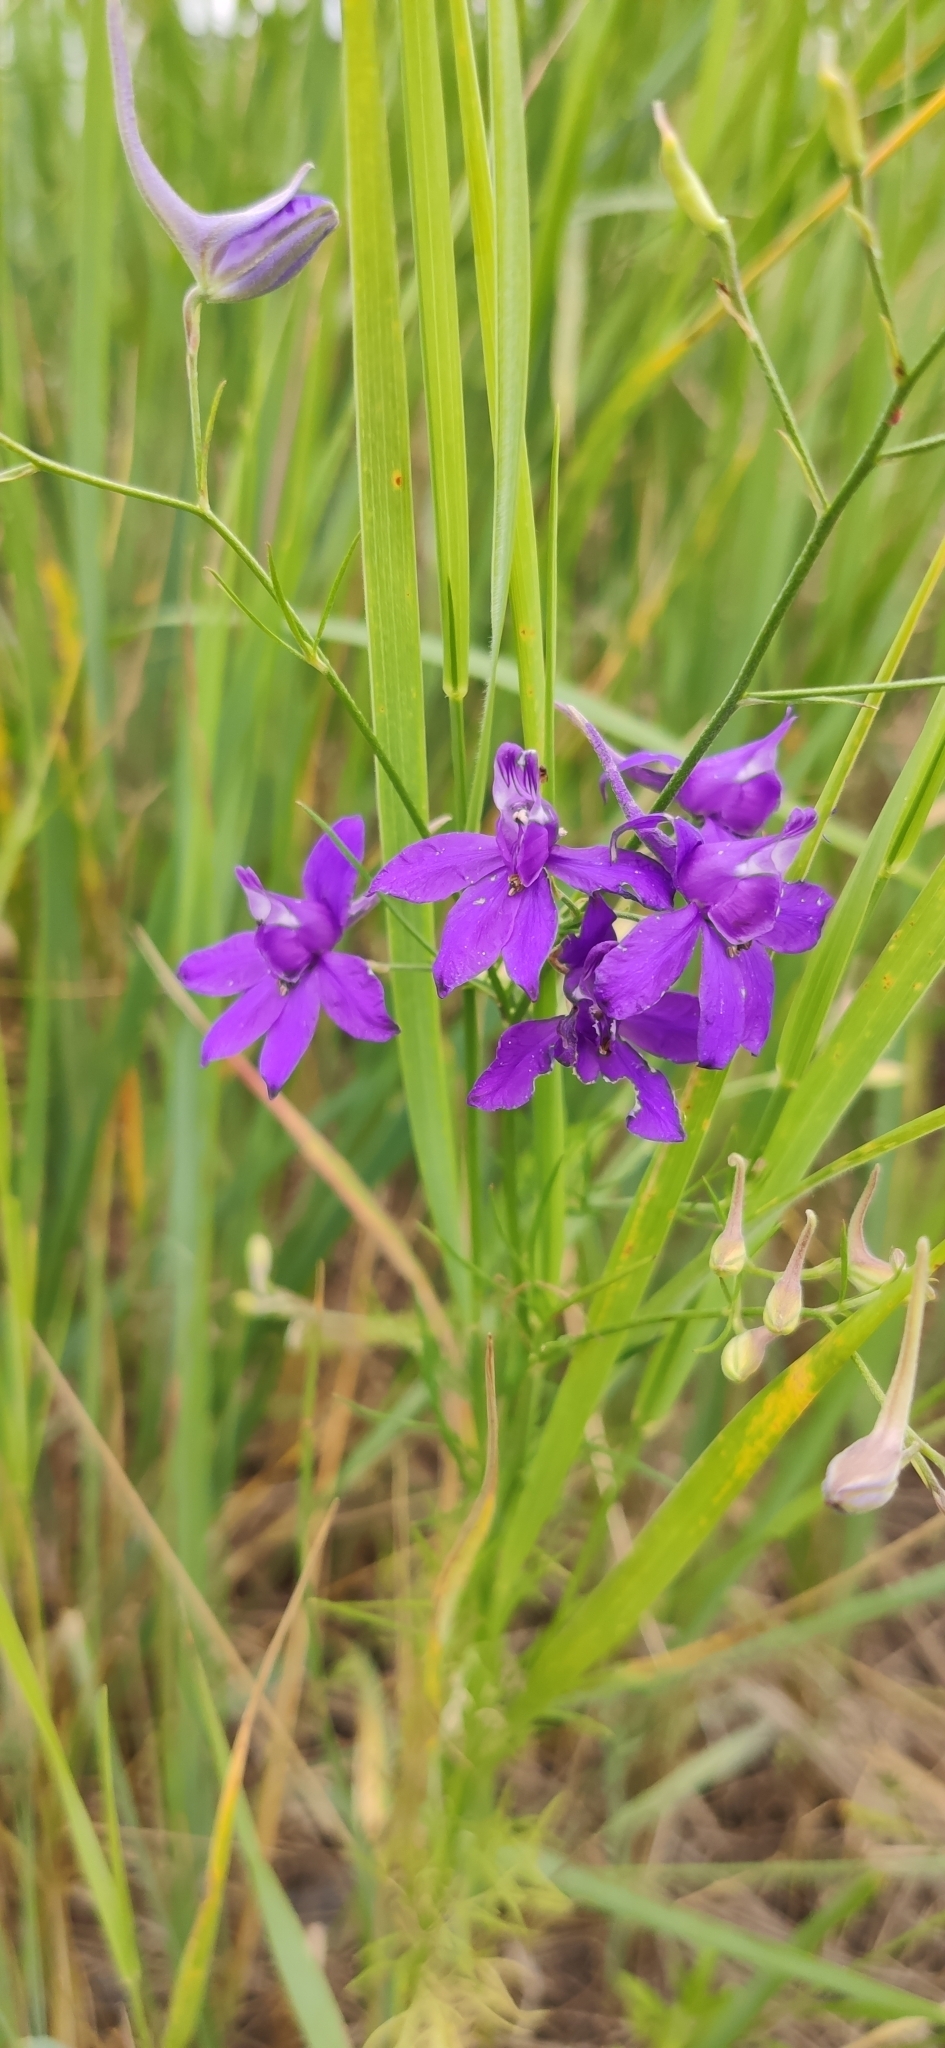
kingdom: Plantae
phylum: Tracheophyta
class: Magnoliopsida
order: Ranunculales
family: Ranunculaceae
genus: Delphinium
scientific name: Delphinium consolida
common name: Branching larkspur
